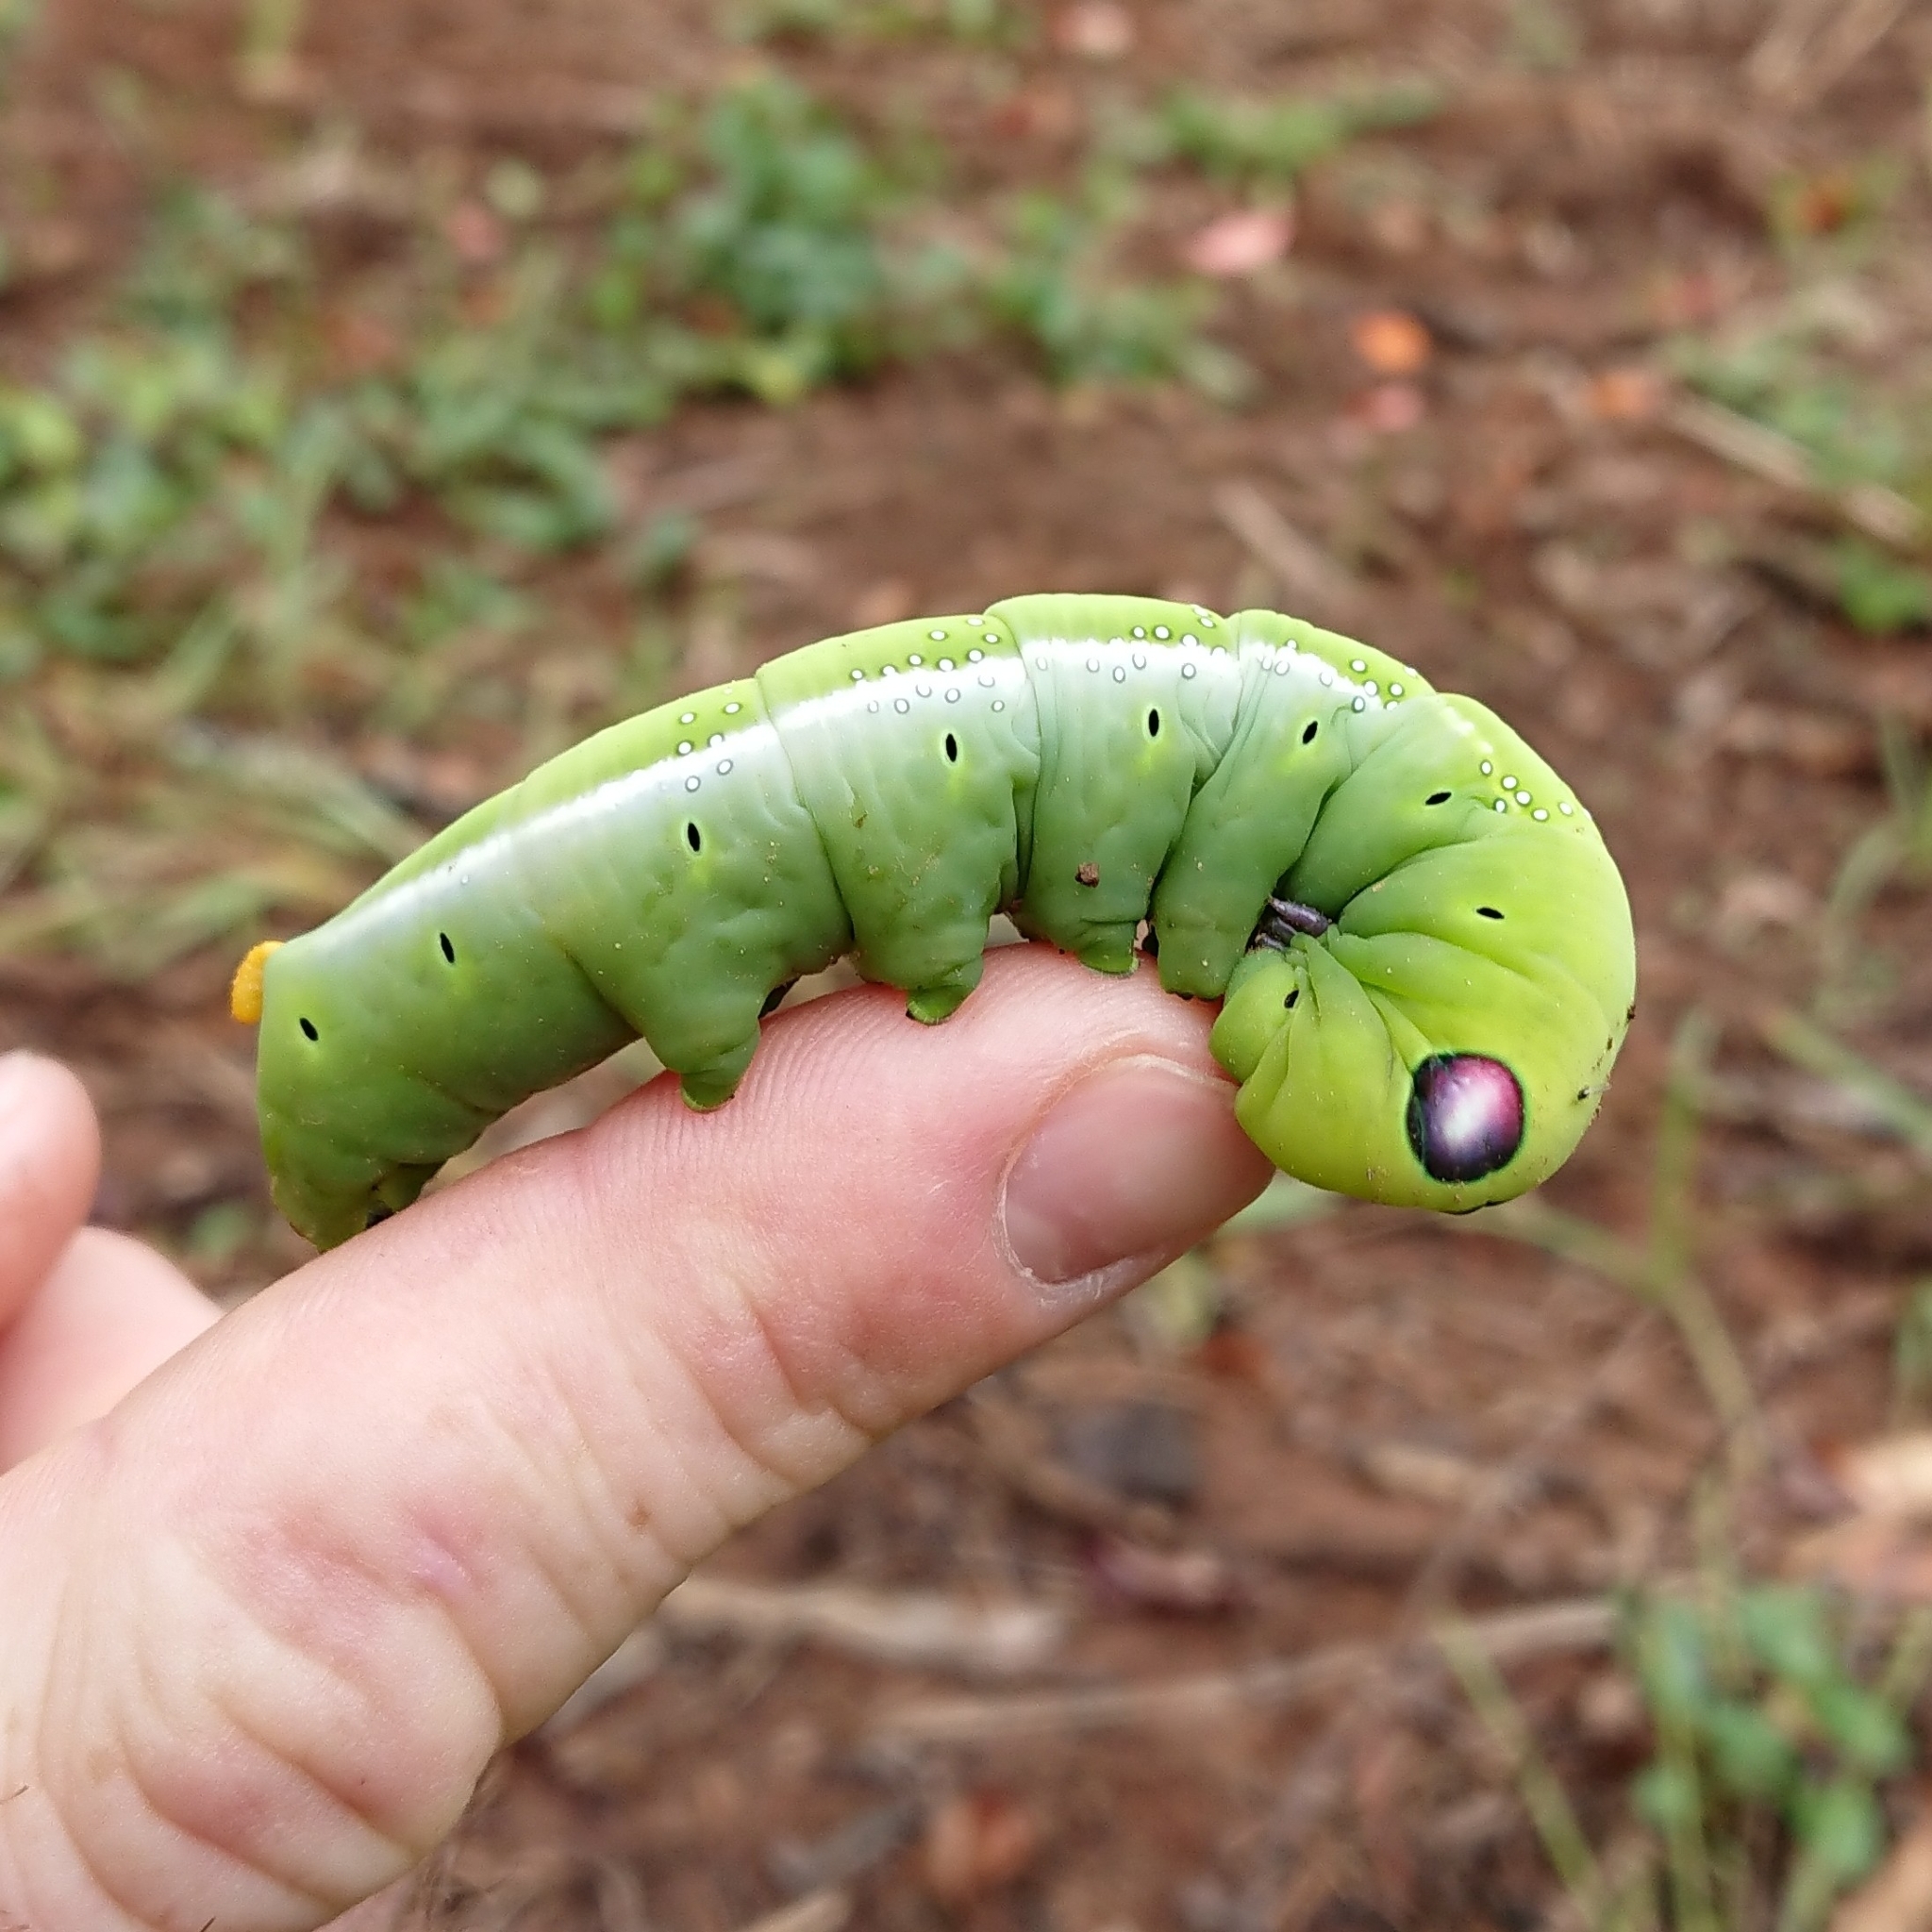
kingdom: Animalia
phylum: Arthropoda
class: Insecta
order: Lepidoptera
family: Sphingidae
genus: Daphnis
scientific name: Daphnis nerii
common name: Oleander hawk-moth
